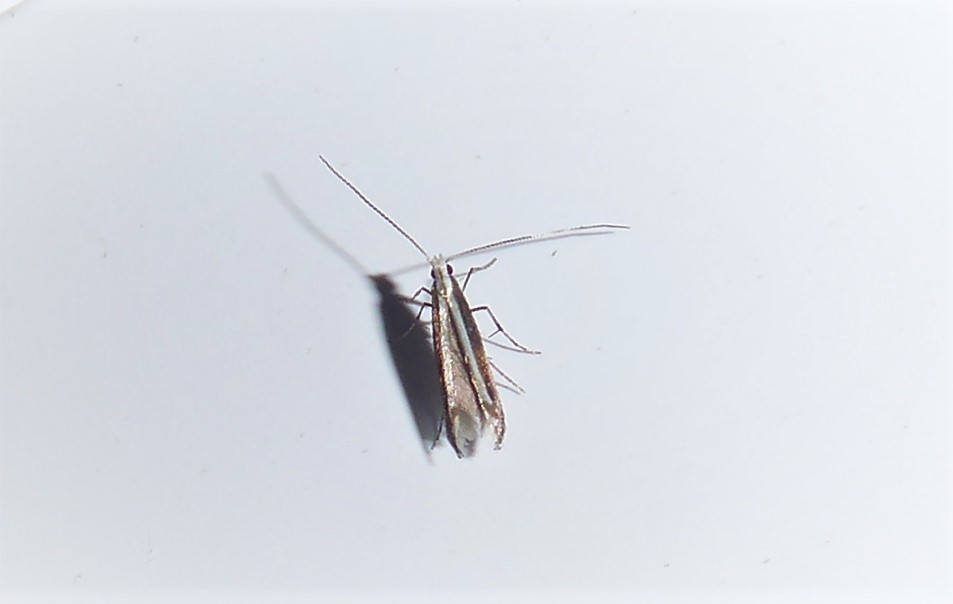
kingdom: Animalia
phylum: Arthropoda
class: Insecta
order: Lepidoptera
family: Gracillariidae
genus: Acrocercops
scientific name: Acrocercops laciniella
